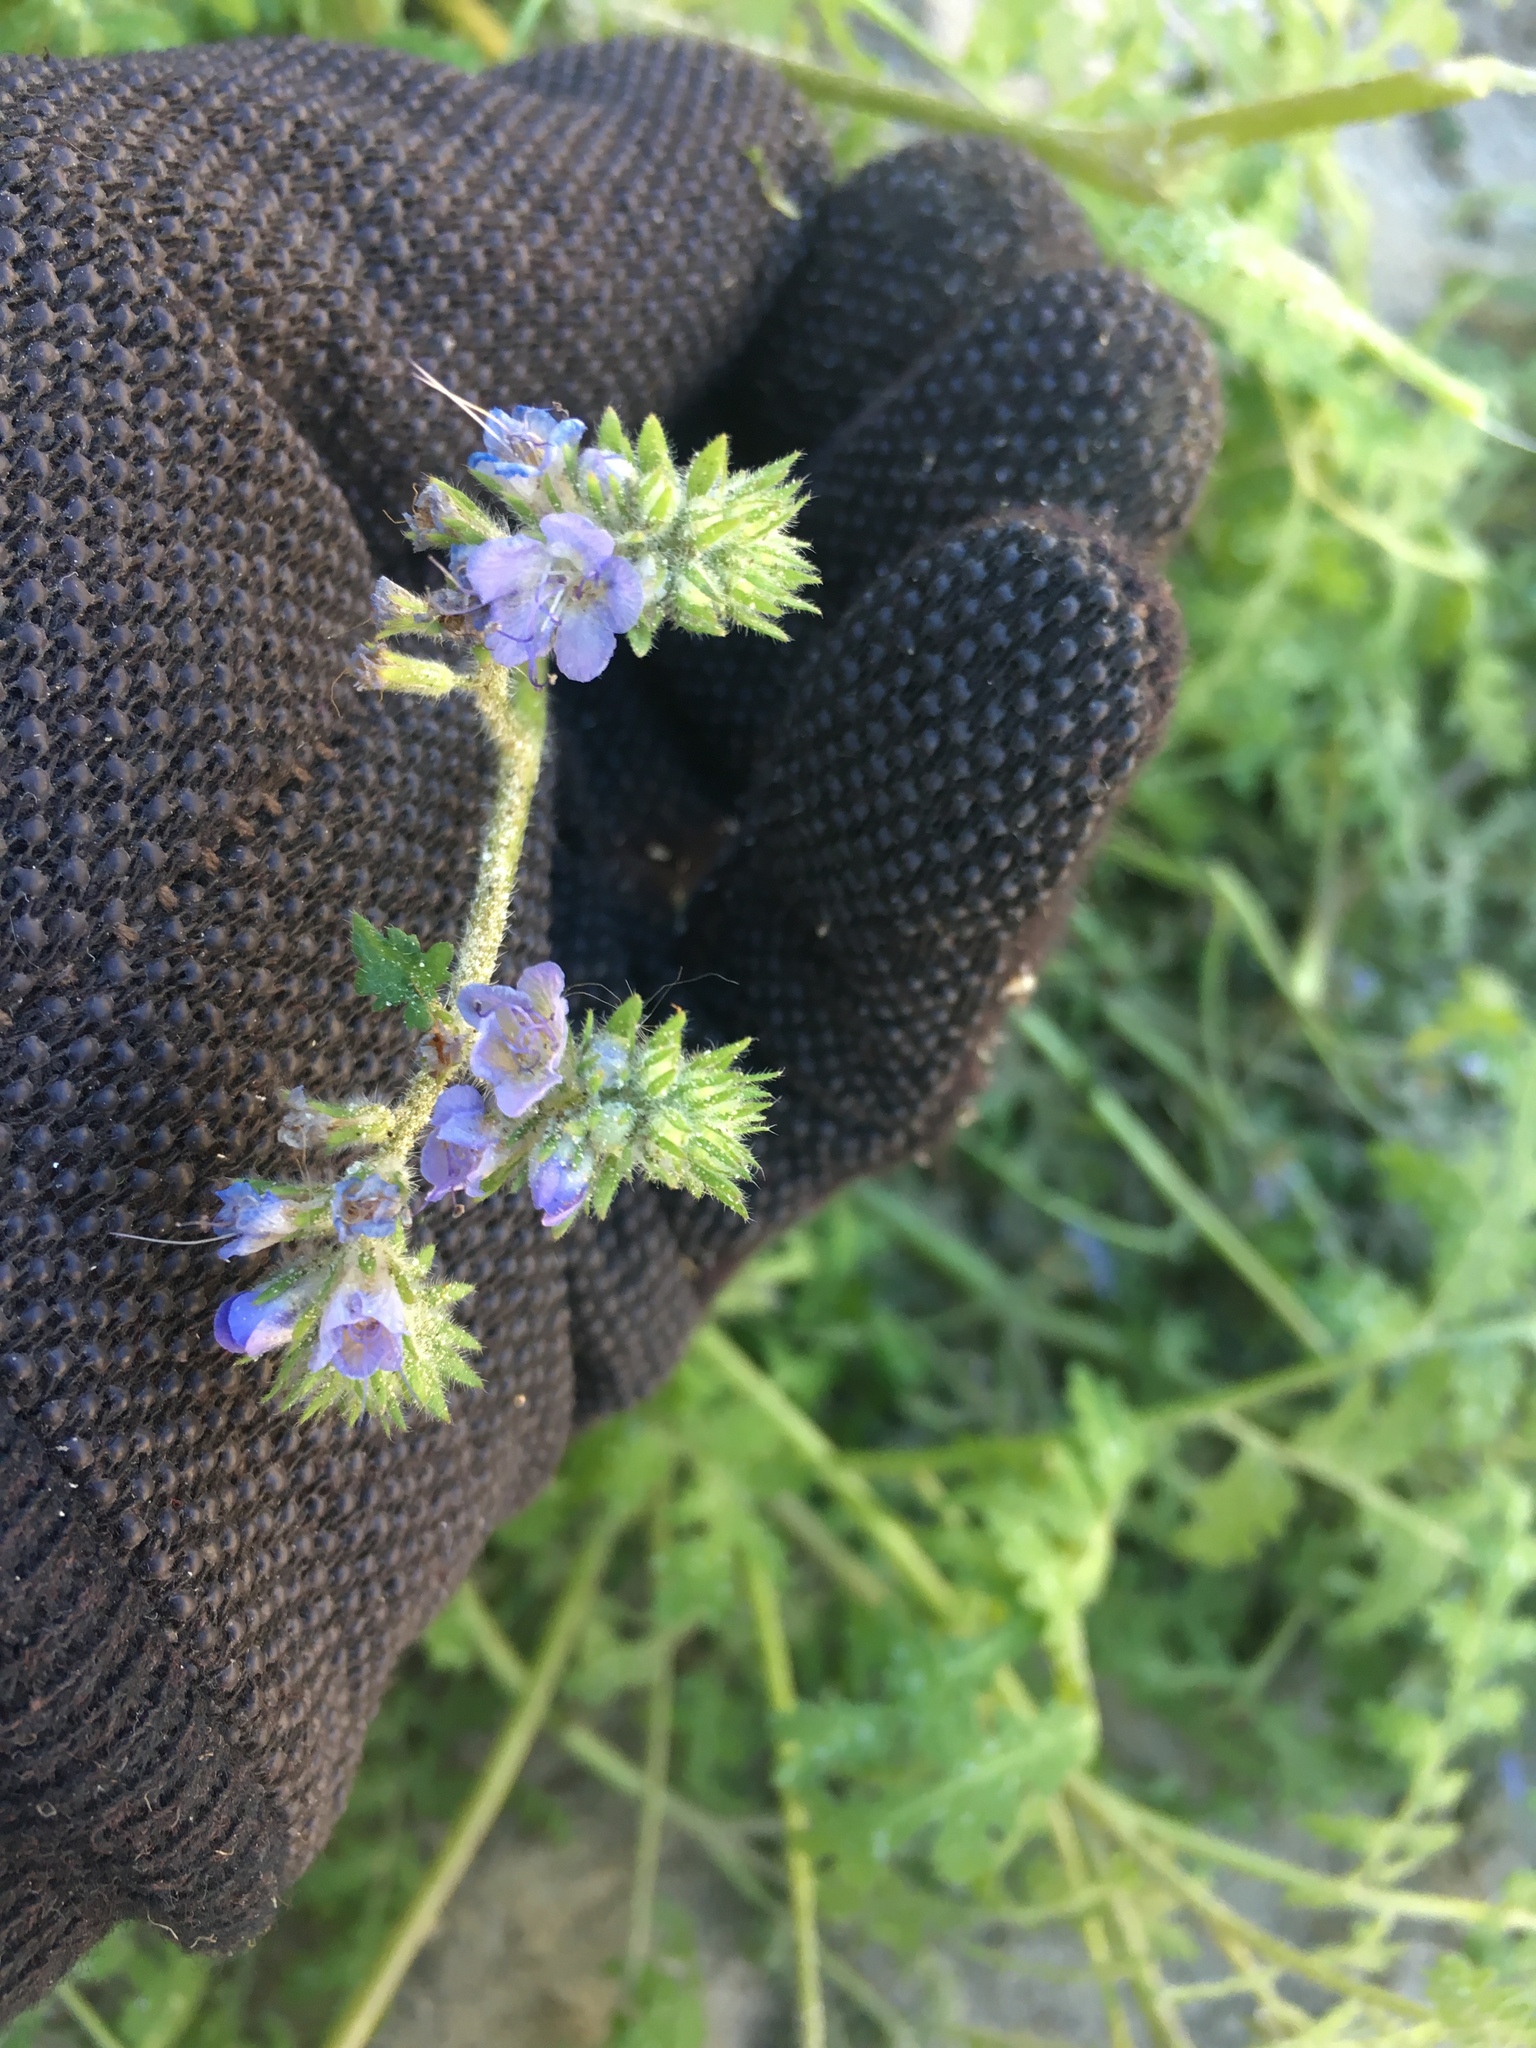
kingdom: Plantae
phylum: Tracheophyta
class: Magnoliopsida
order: Boraginales
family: Hydrophyllaceae
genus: Phacelia
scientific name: Phacelia distans
